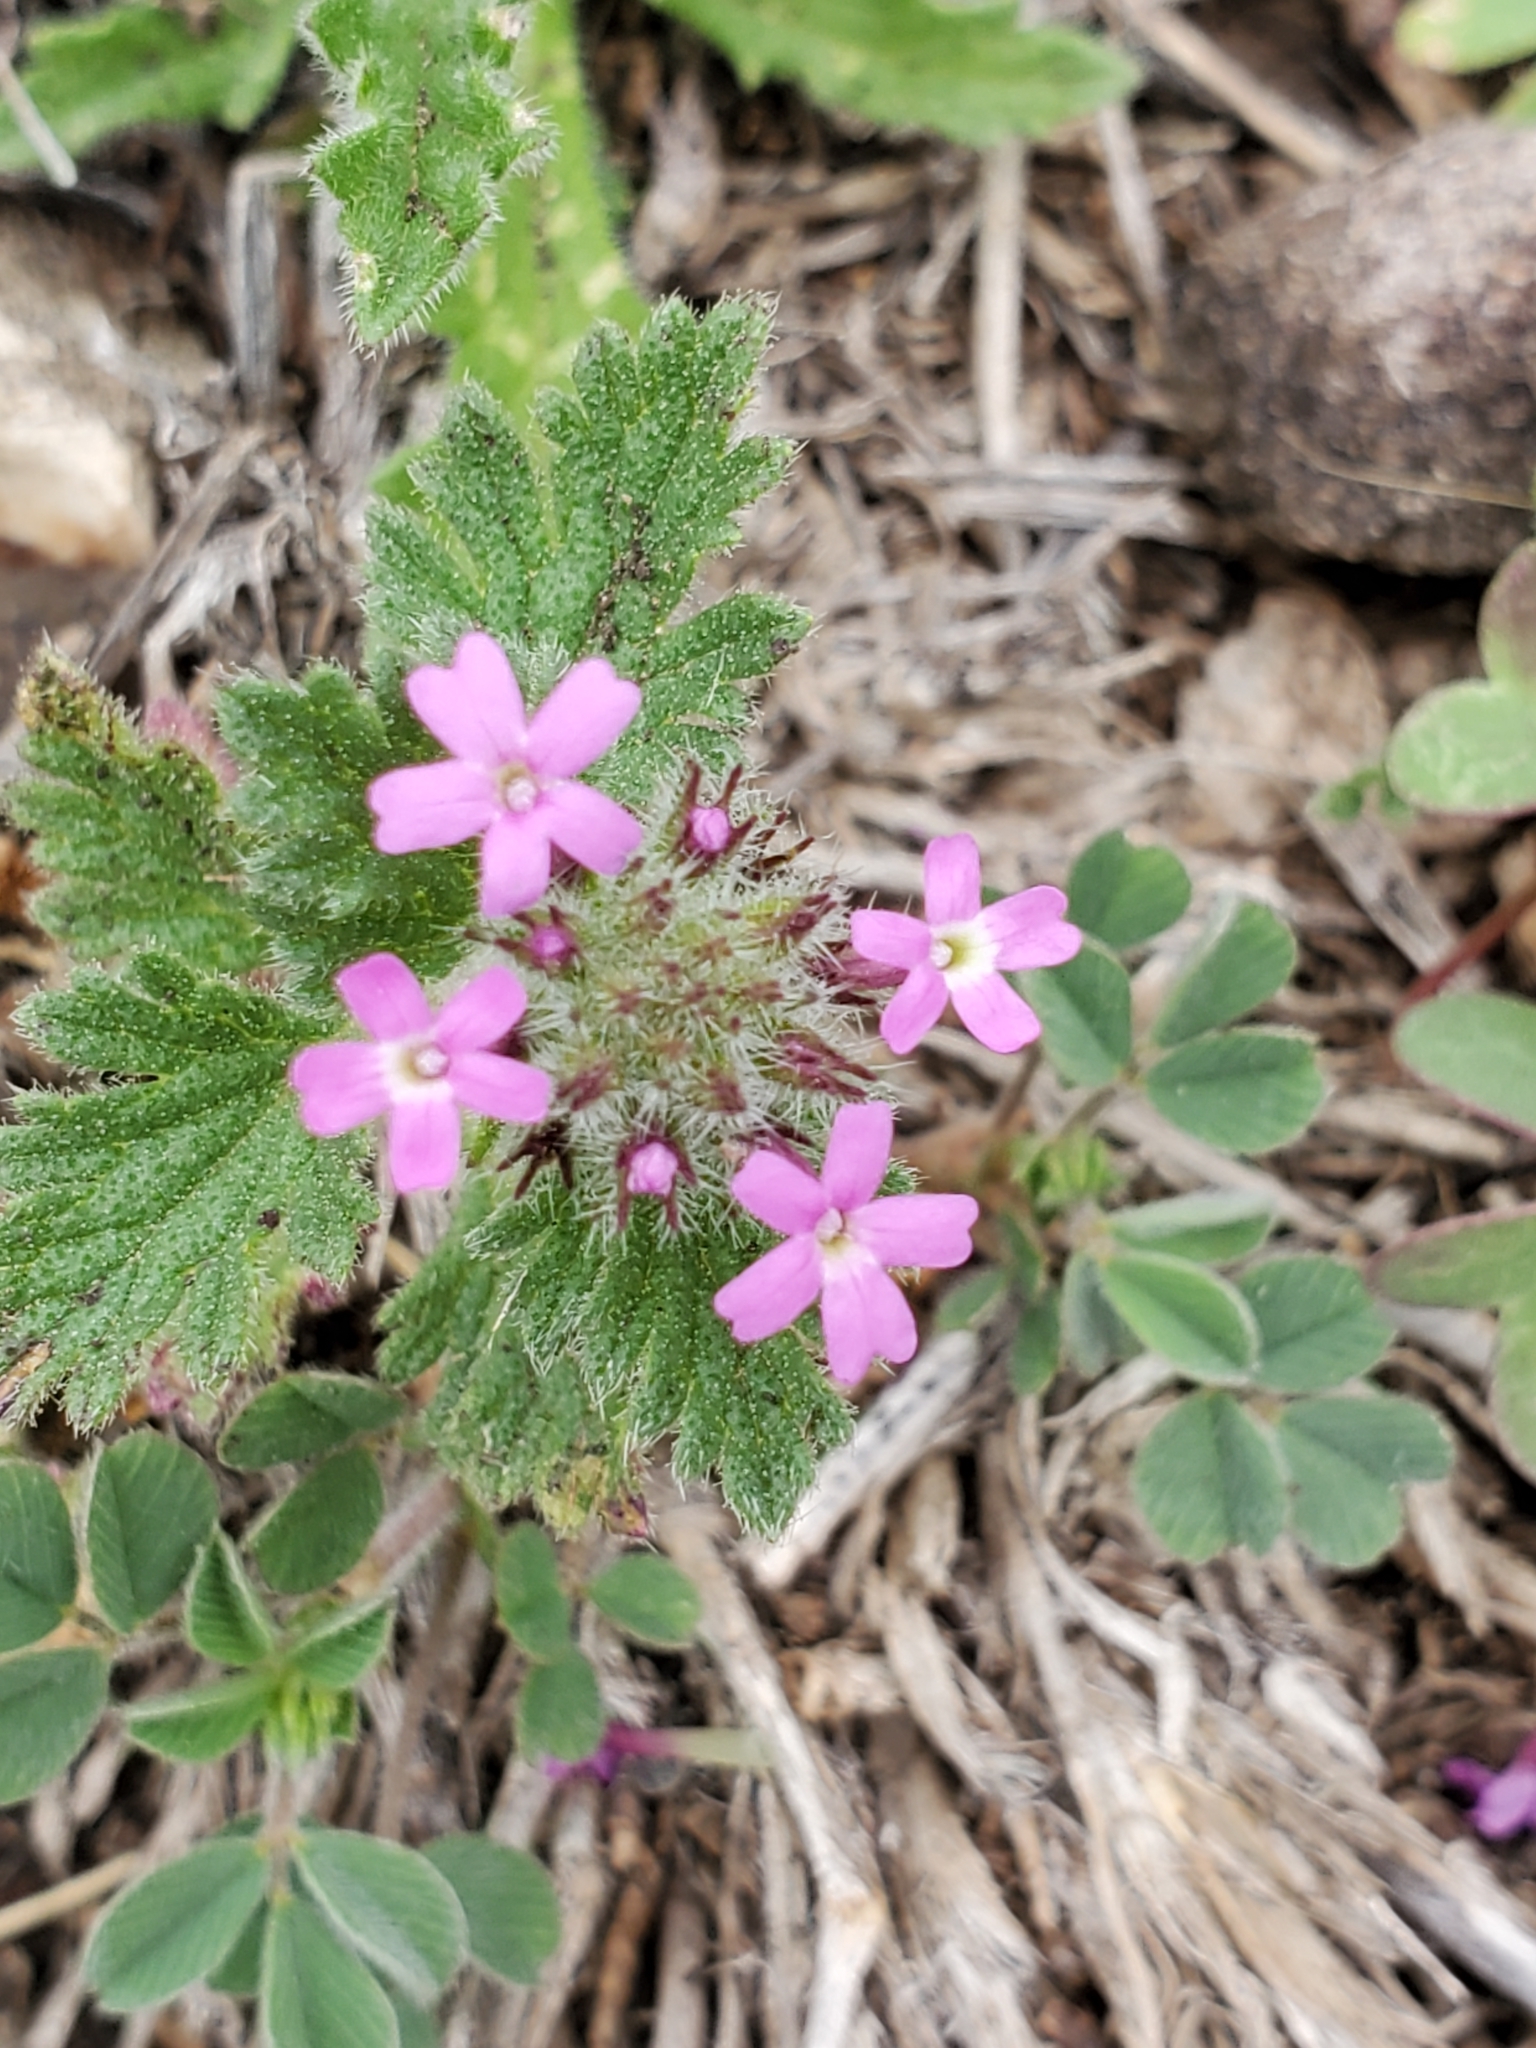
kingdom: Plantae
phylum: Tracheophyta
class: Magnoliopsida
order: Lamiales
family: Verbenaceae
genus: Verbena
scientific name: Verbena pumila
